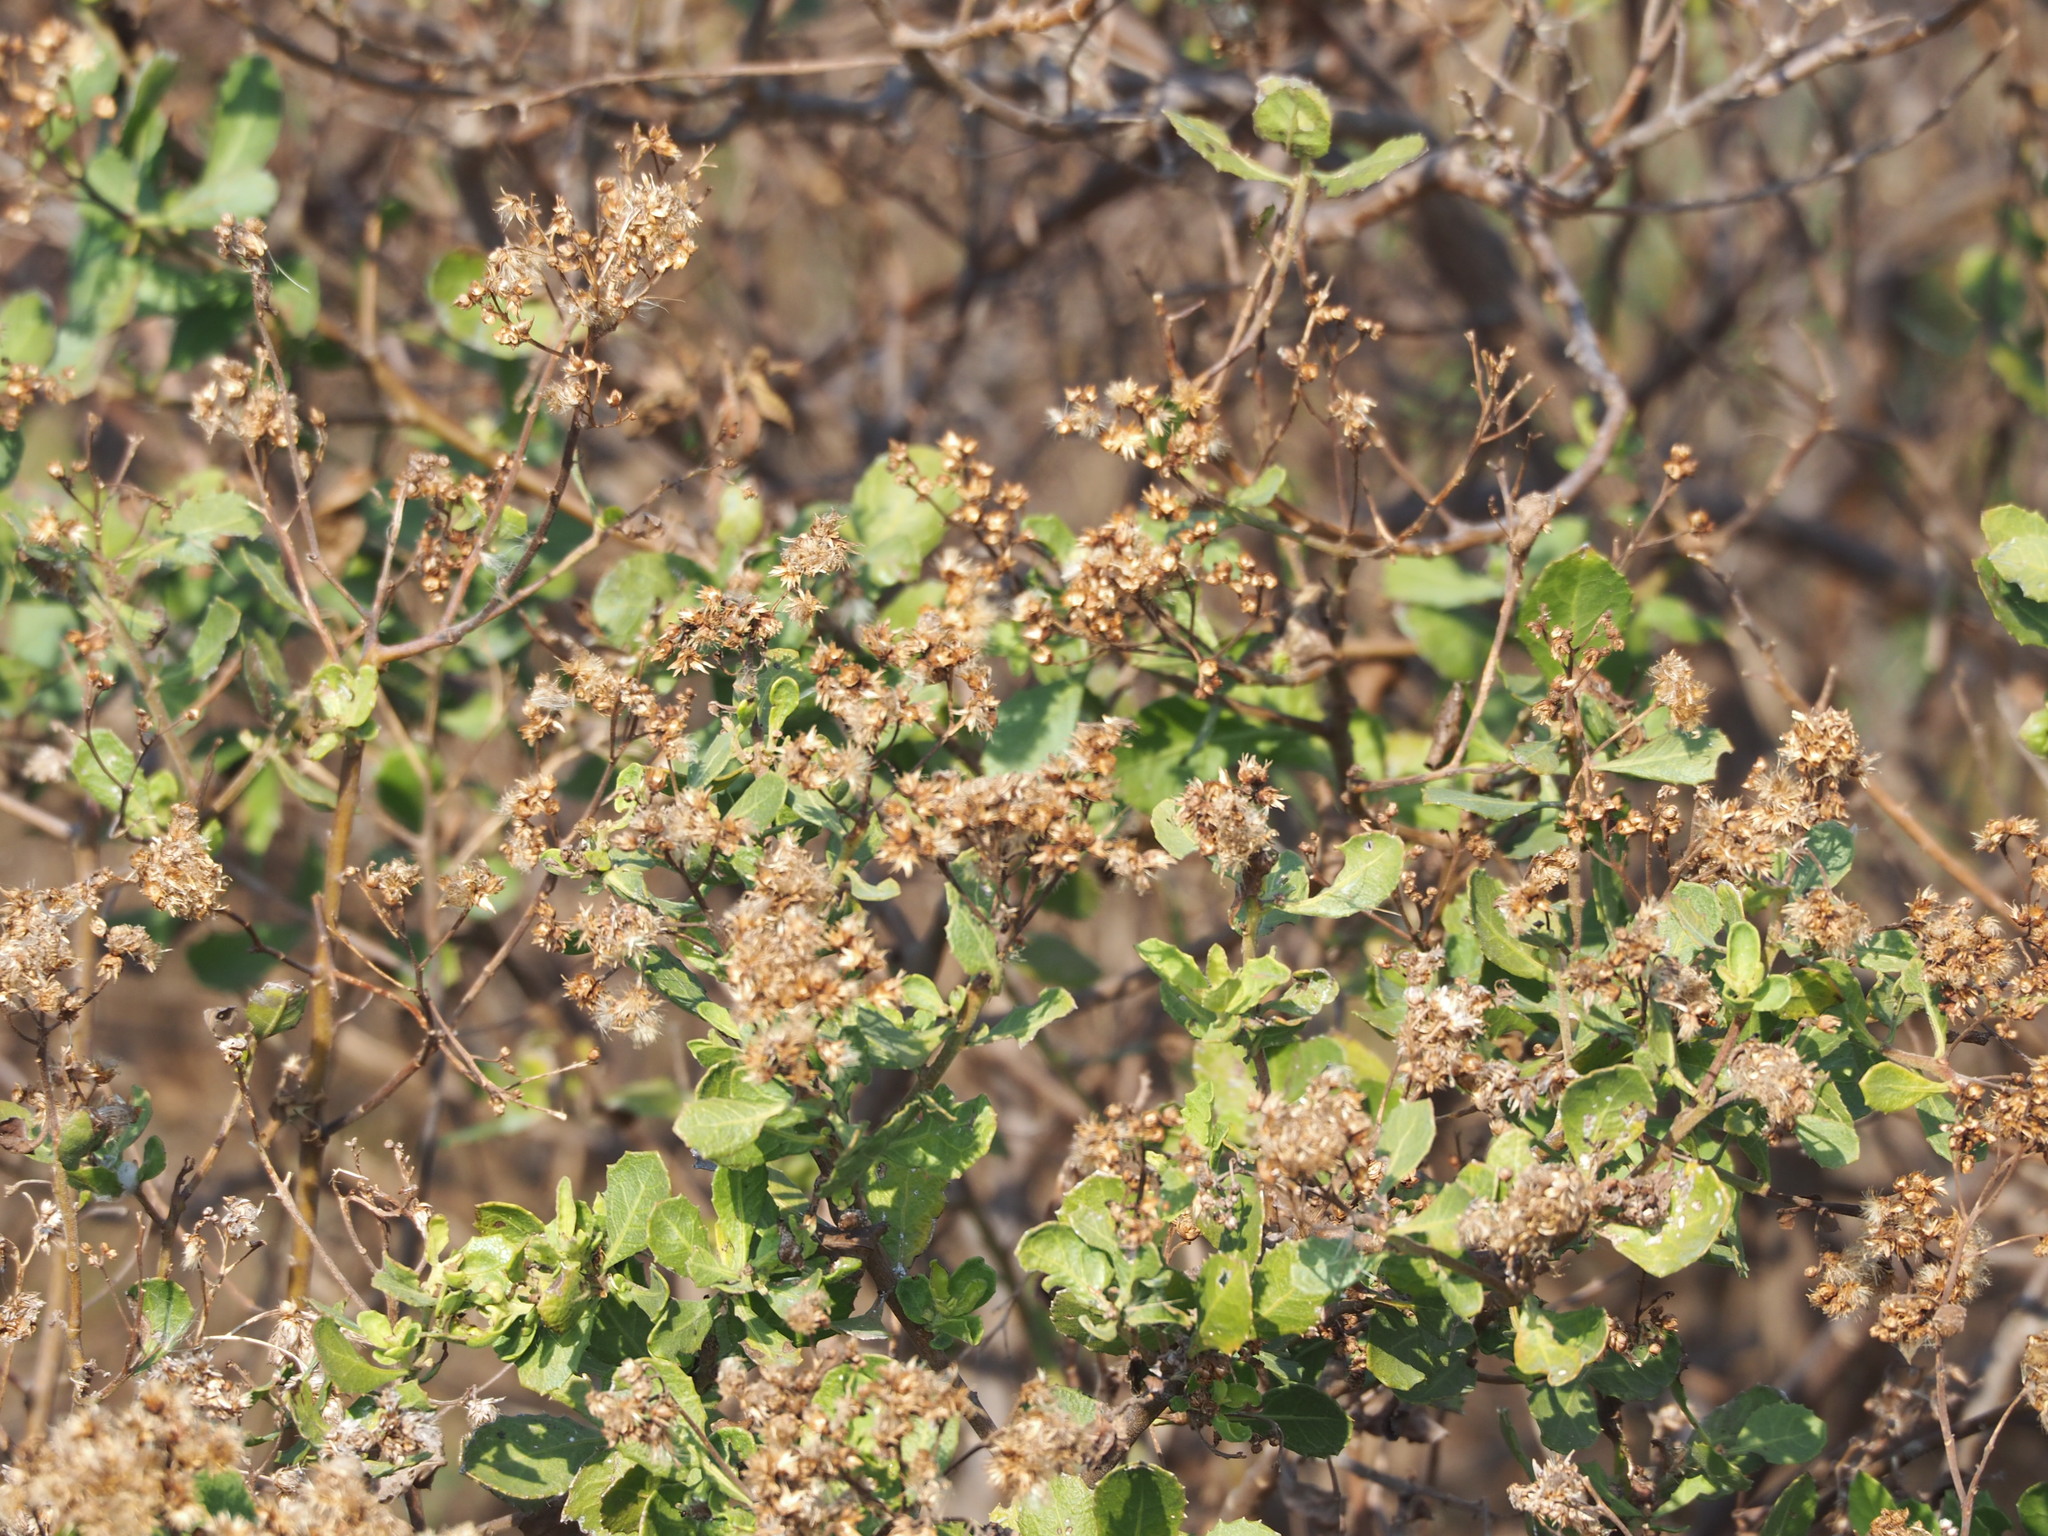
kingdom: Plantae
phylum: Tracheophyta
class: Magnoliopsida
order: Asterales
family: Asteraceae
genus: Pluchea
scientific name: Pluchea indica
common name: Indian fleabane
